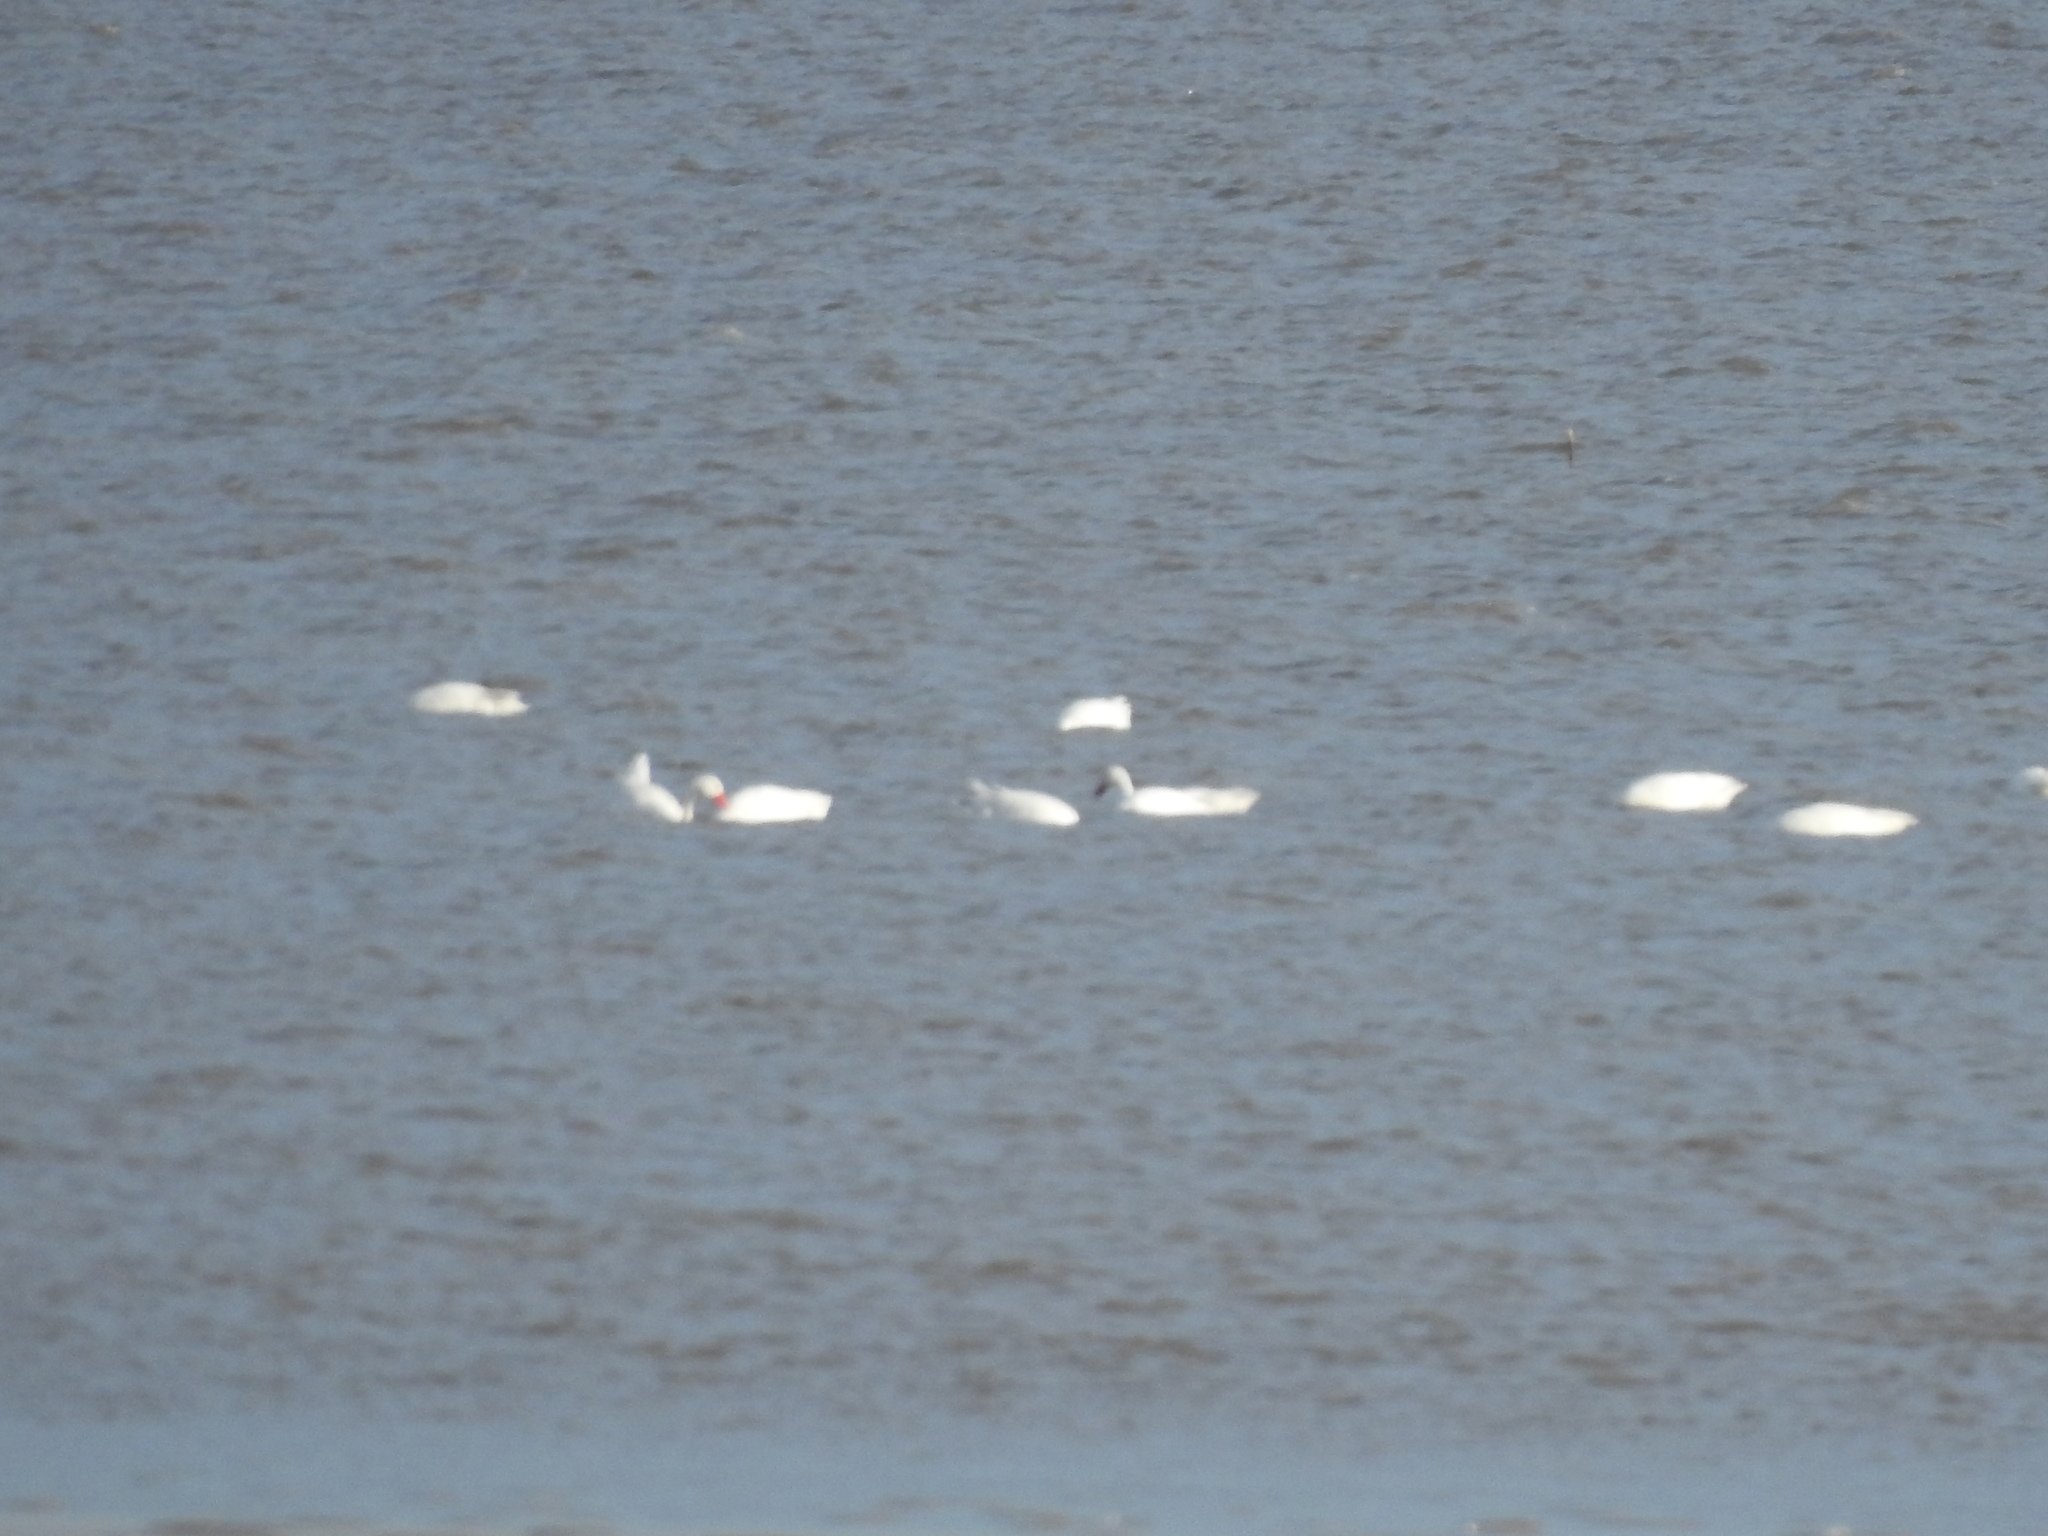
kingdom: Animalia
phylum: Chordata
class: Aves
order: Anseriformes
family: Anatidae
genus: Coscoroba
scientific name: Coscoroba coscoroba
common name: Coscoroba swan
